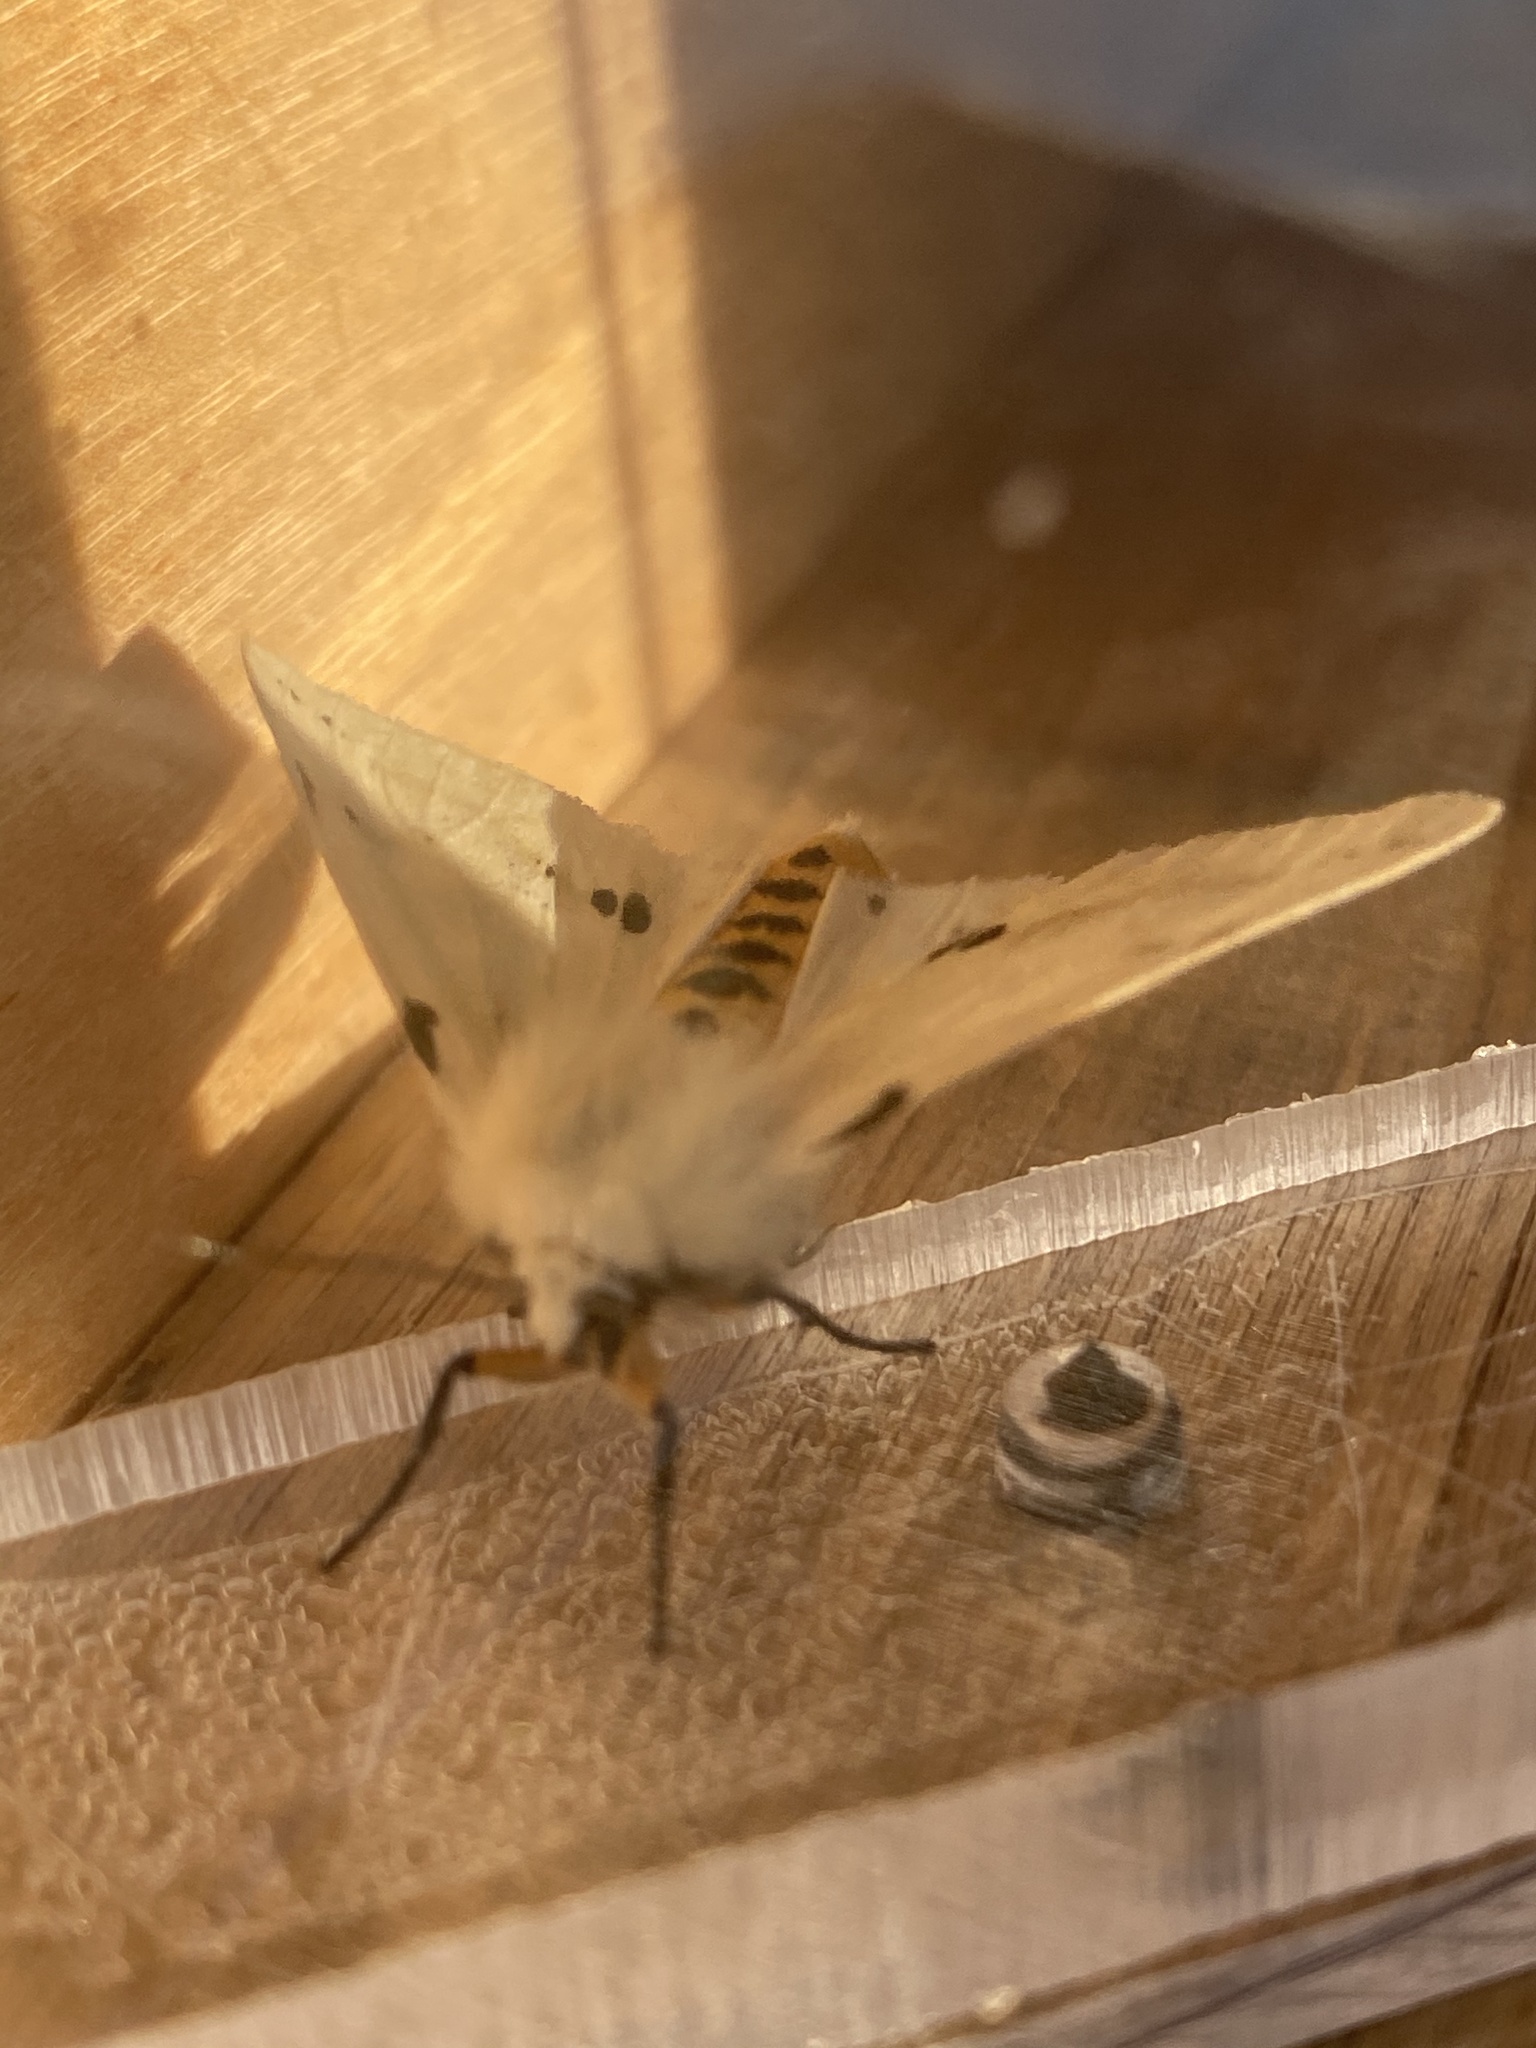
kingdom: Animalia
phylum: Arthropoda
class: Insecta
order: Lepidoptera
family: Erebidae
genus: Spilarctia
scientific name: Spilarctia lutea
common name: Buff ermine
